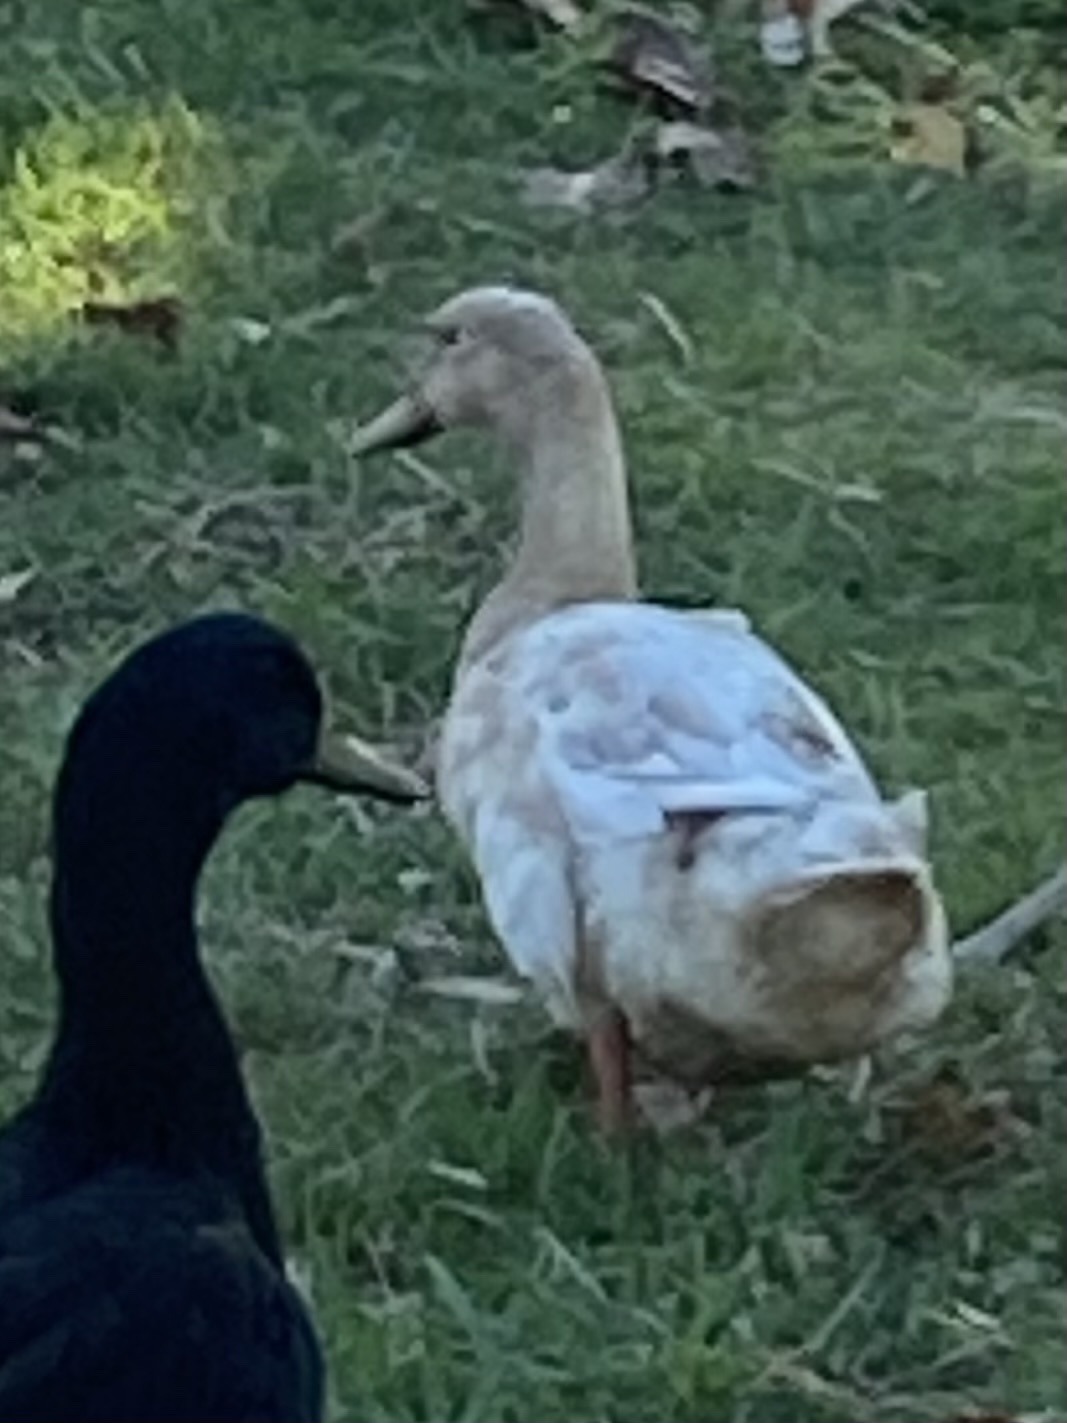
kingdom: Animalia
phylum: Chordata
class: Aves
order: Anseriformes
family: Anatidae
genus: Anas
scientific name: Anas platyrhynchos
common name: Mallard
